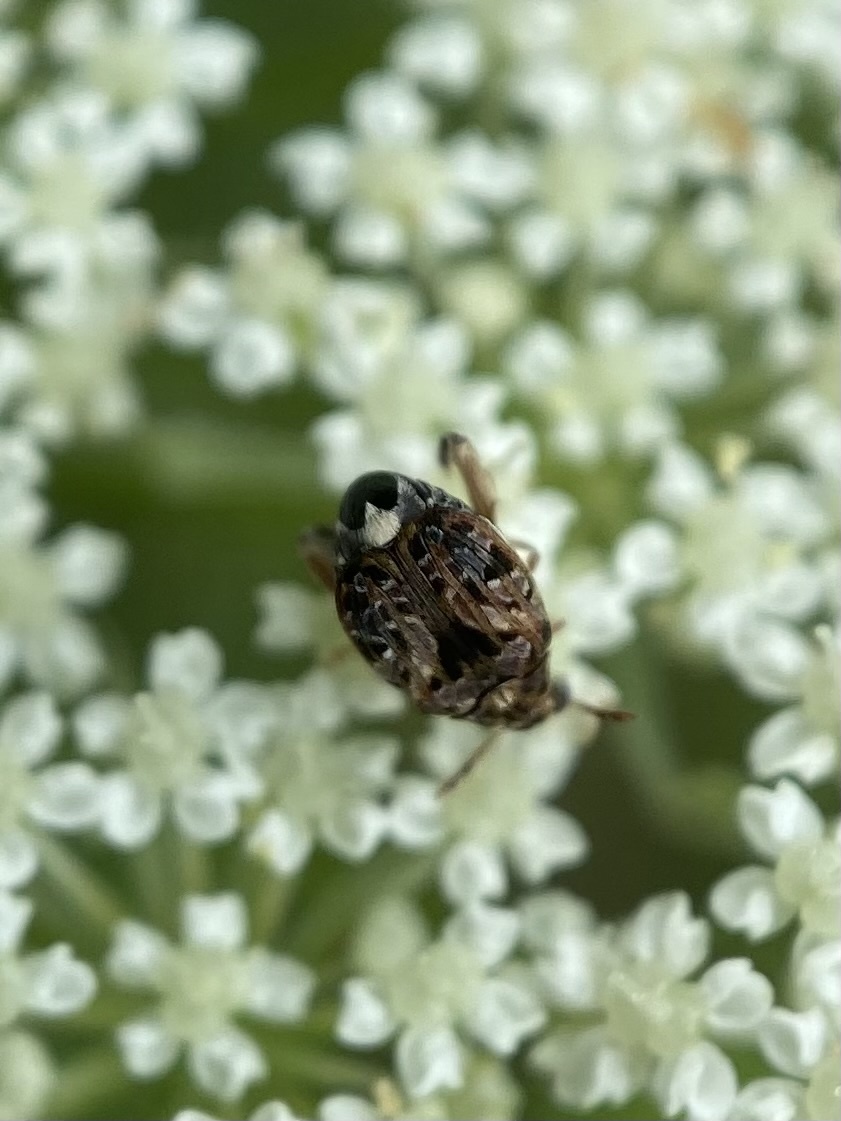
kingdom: Animalia
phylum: Arthropoda
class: Insecta
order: Coleoptera
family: Chrysomelidae
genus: Gibbobruchus
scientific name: Gibbobruchus mimus
